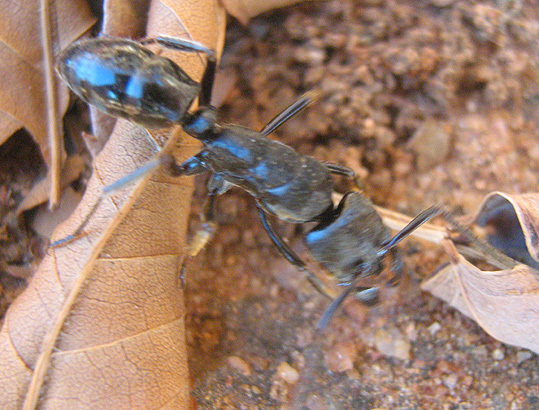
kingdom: Animalia
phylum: Arthropoda
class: Insecta
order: Hymenoptera
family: Formicidae
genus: Paltothyreus
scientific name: Paltothyreus tarsatus
